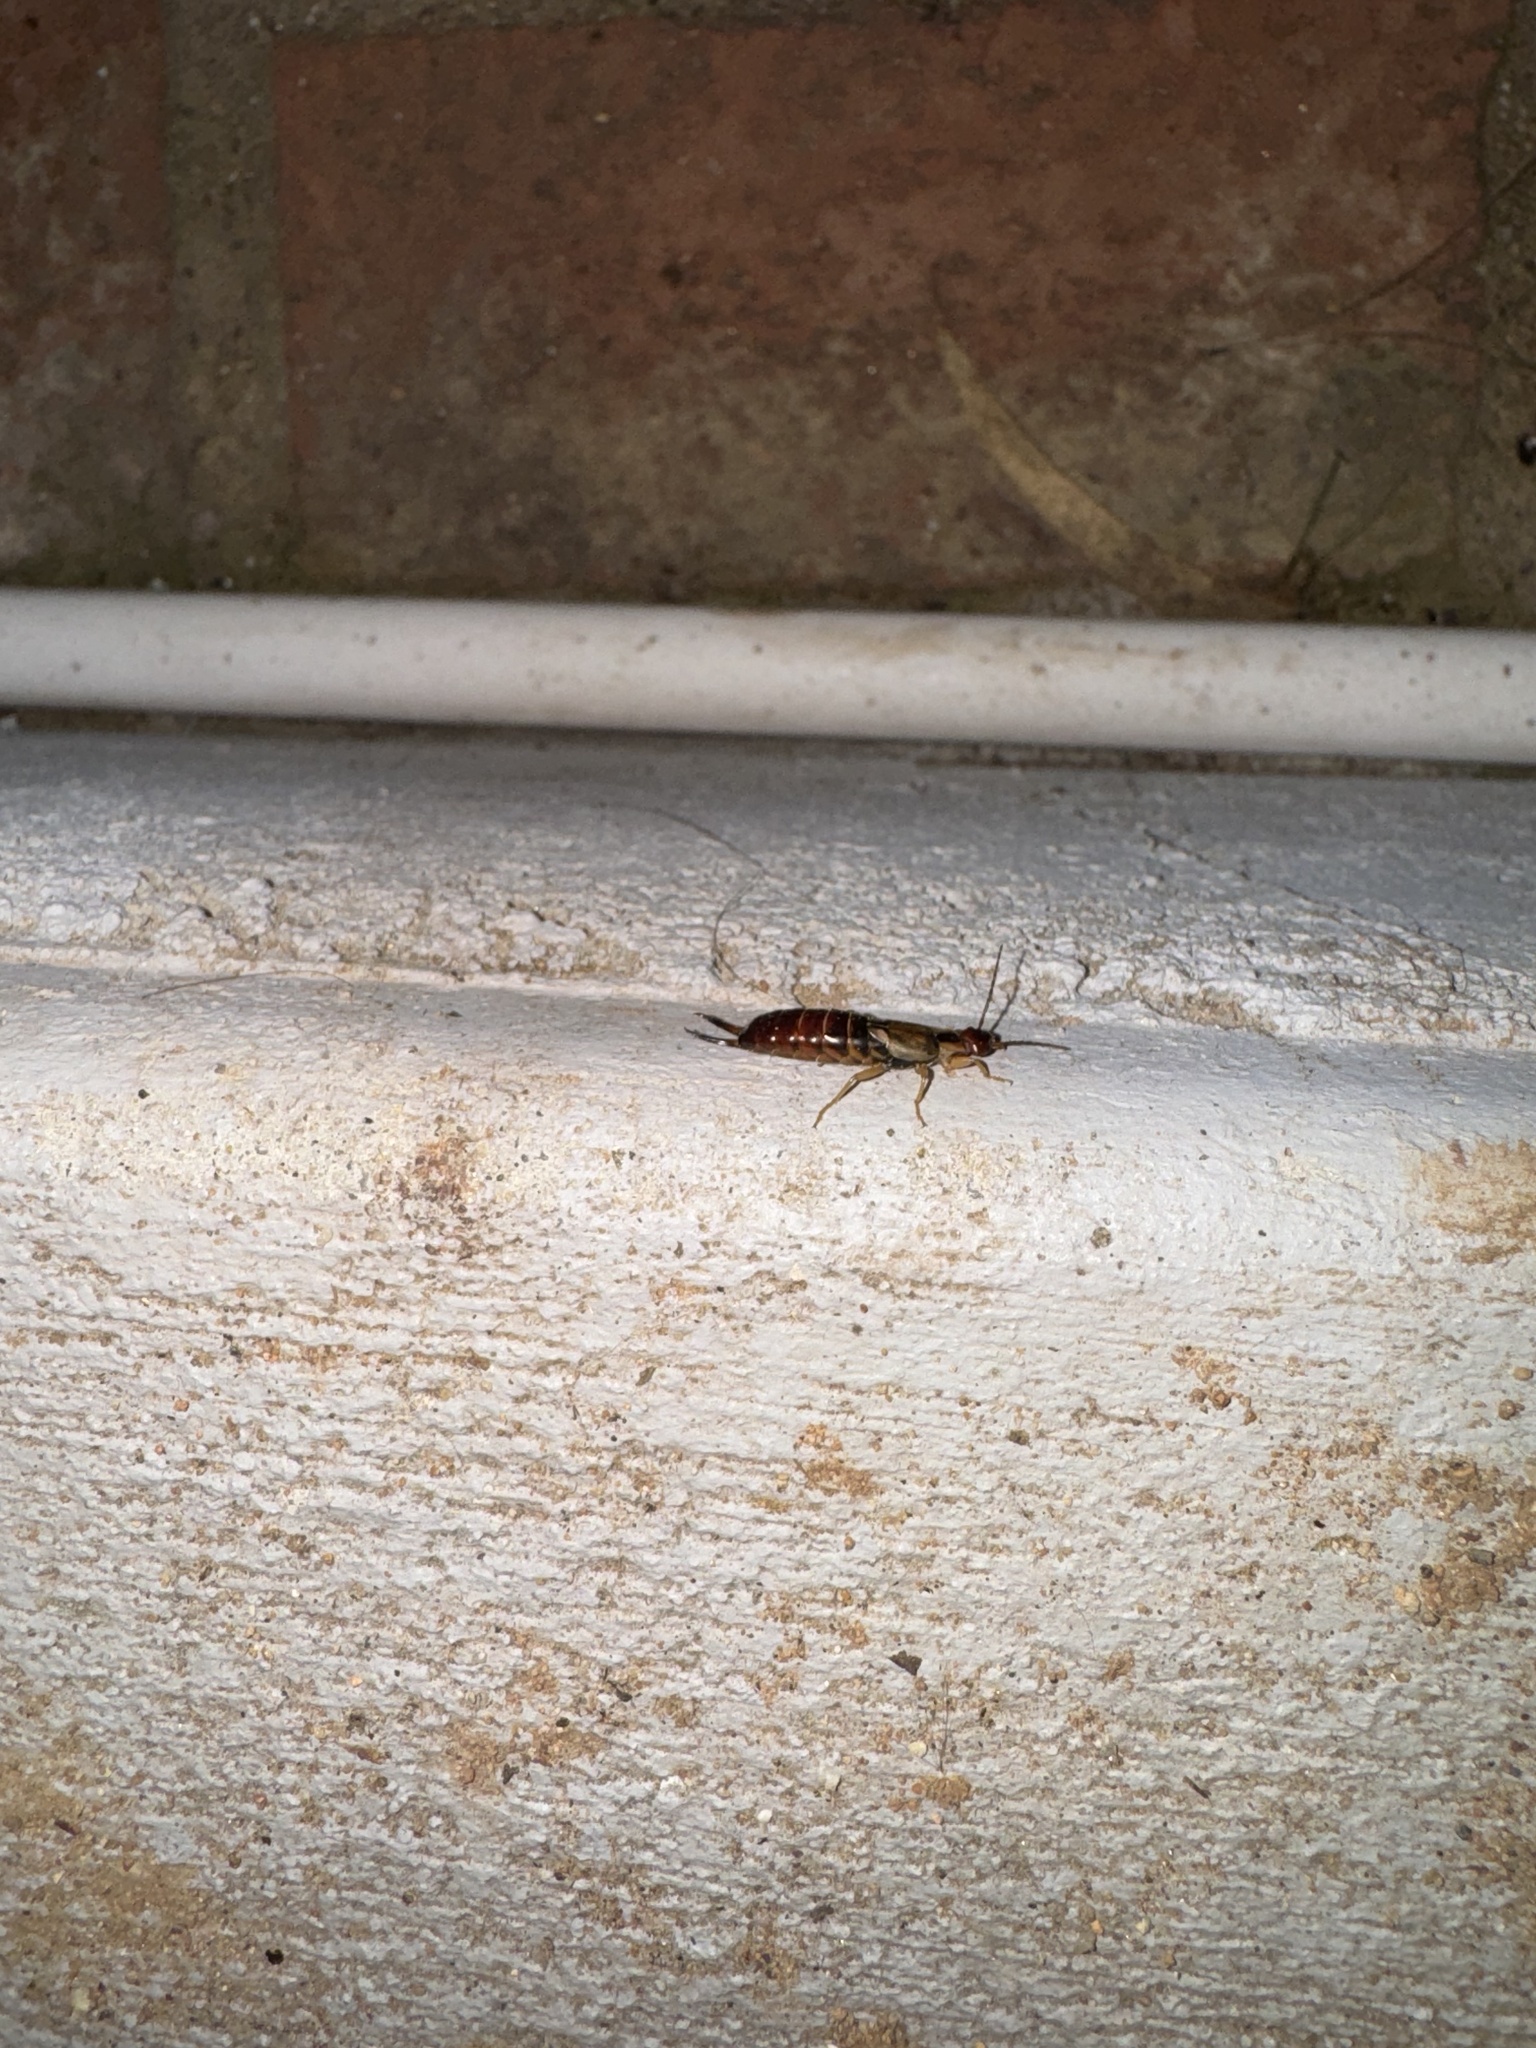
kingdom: Animalia
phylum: Arthropoda
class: Insecta
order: Dermaptera
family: Forficulidae
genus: Forficula
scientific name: Forficula dentata
